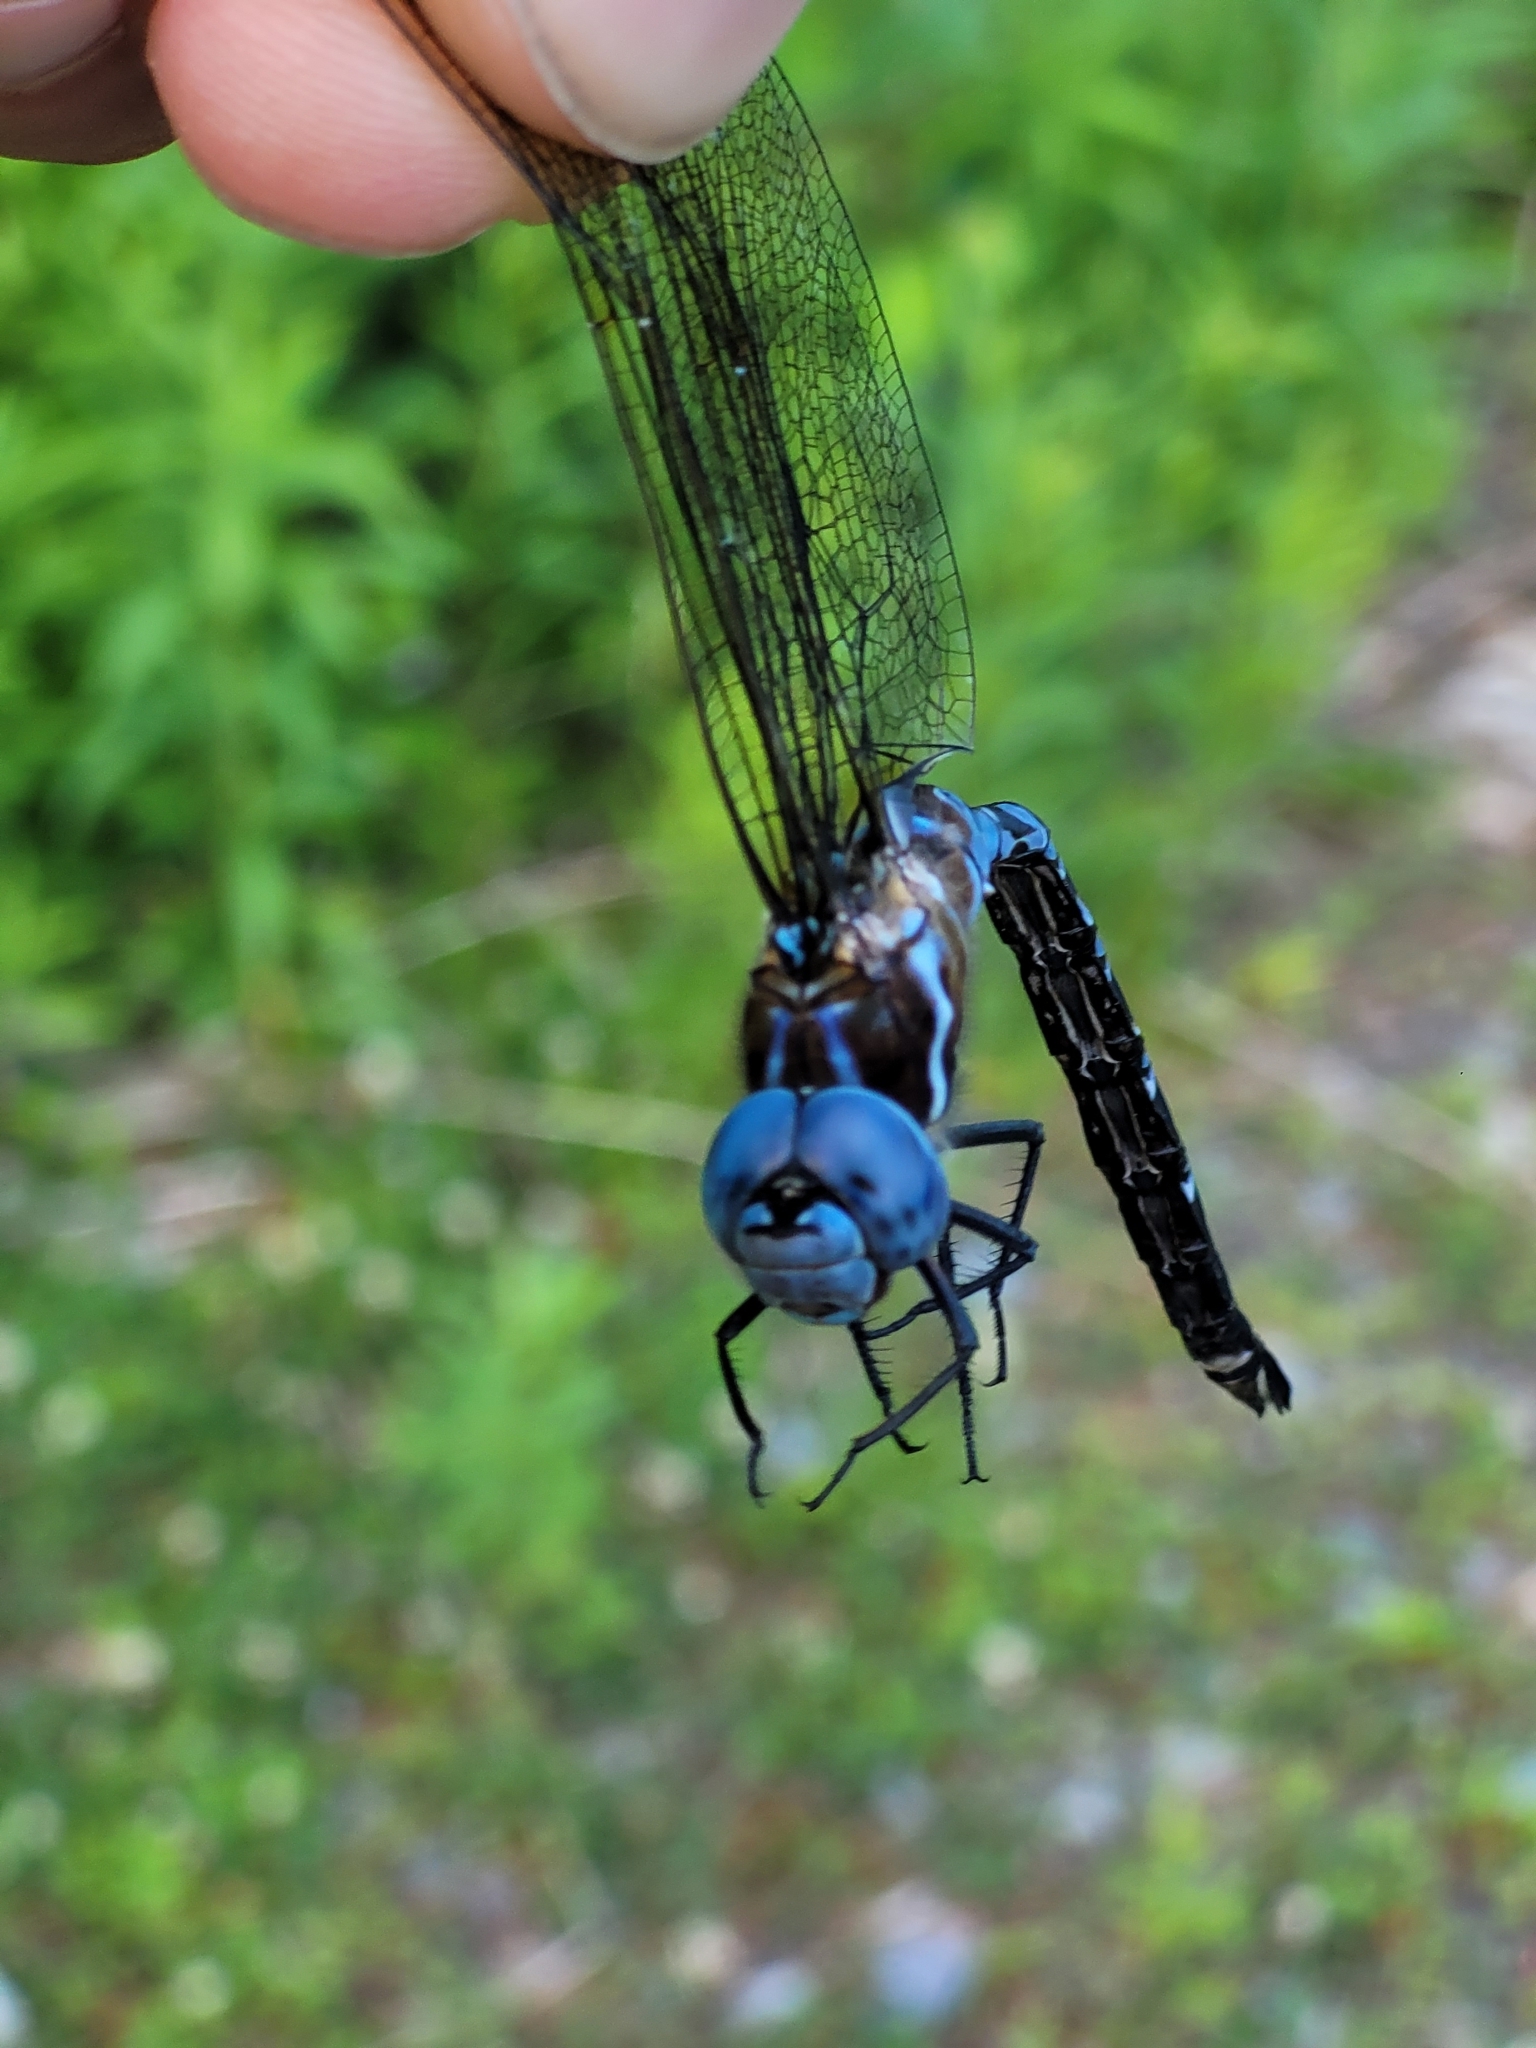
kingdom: Animalia
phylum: Arthropoda
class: Insecta
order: Odonata
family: Aeshnidae
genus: Rhionaeschna
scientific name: Rhionaeschna mutata
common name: Spatterdock darner
